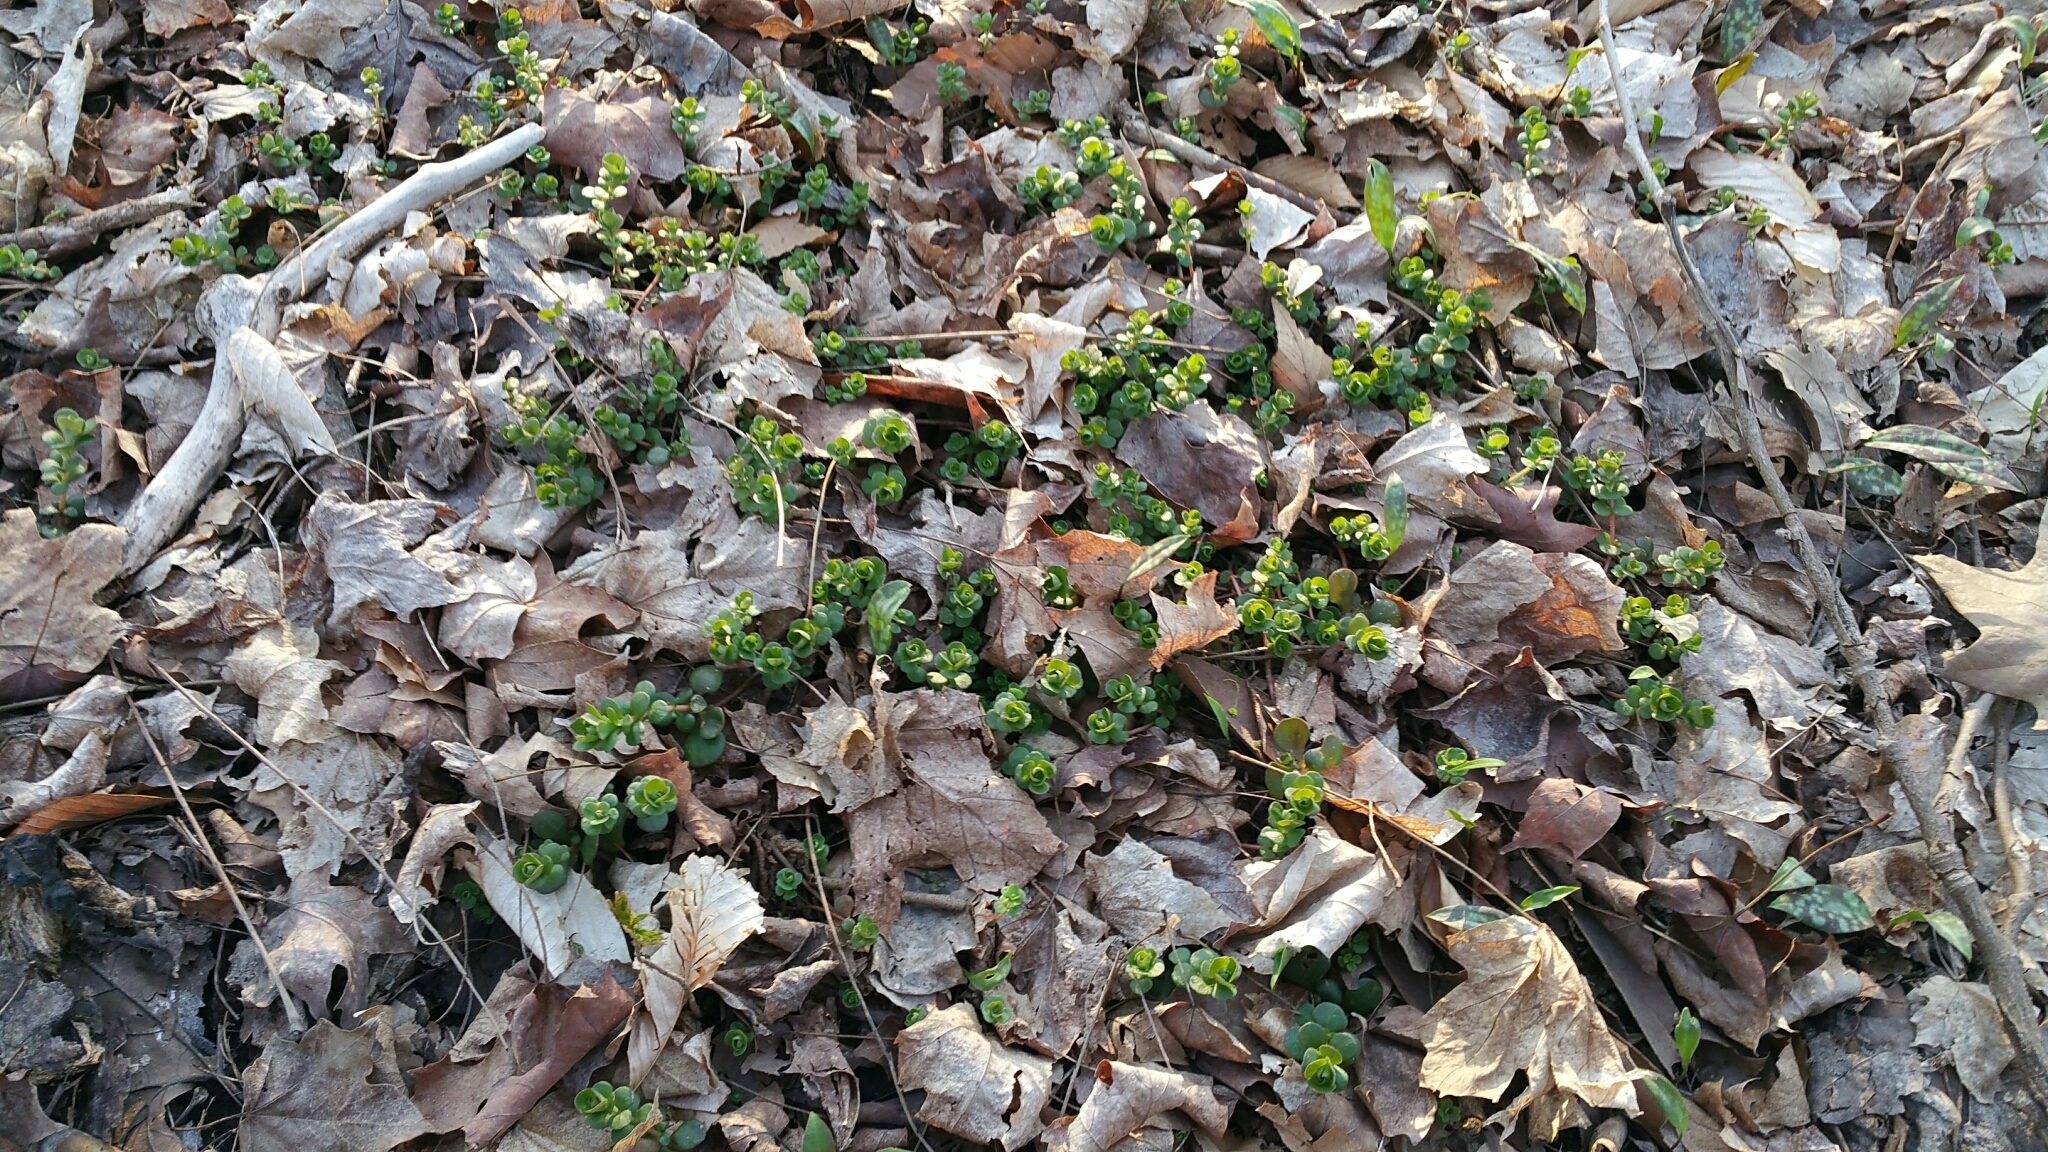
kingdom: Plantae
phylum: Tracheophyta
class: Magnoliopsida
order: Saxifragales
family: Crassulaceae
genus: Sedum
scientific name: Sedum ternatum
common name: Wild stonecrop
